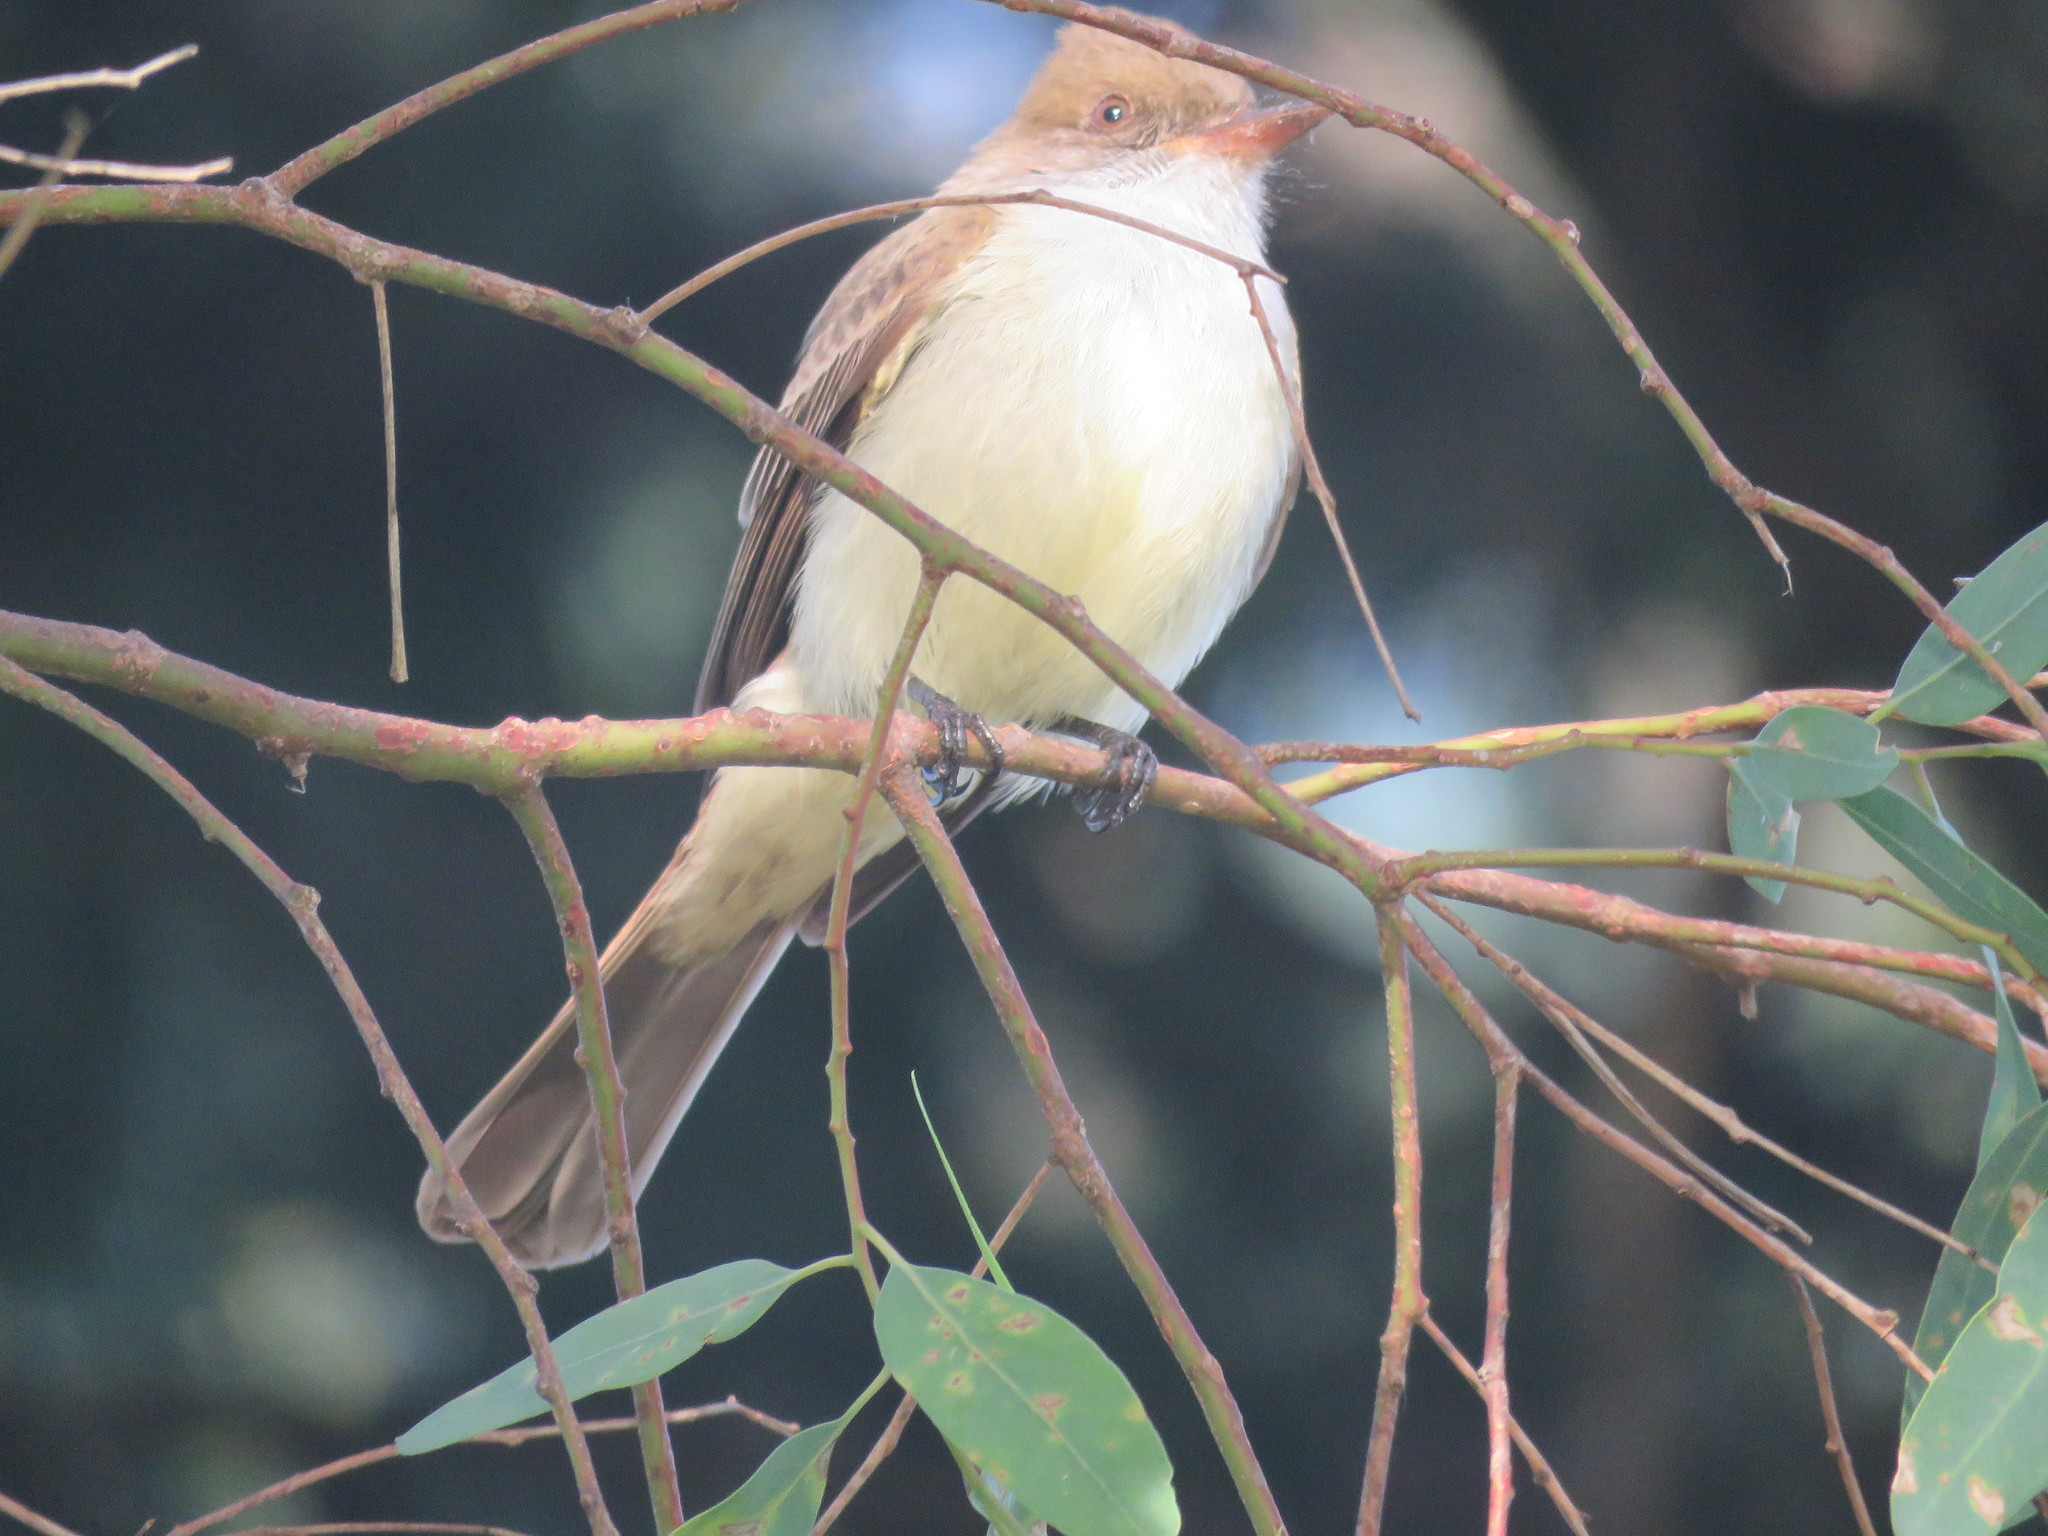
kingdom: Animalia
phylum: Chordata
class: Aves
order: Passeriformes
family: Tyrannidae
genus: Myiarchus
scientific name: Myiarchus swainsoni
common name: Swainson's flycatcher
